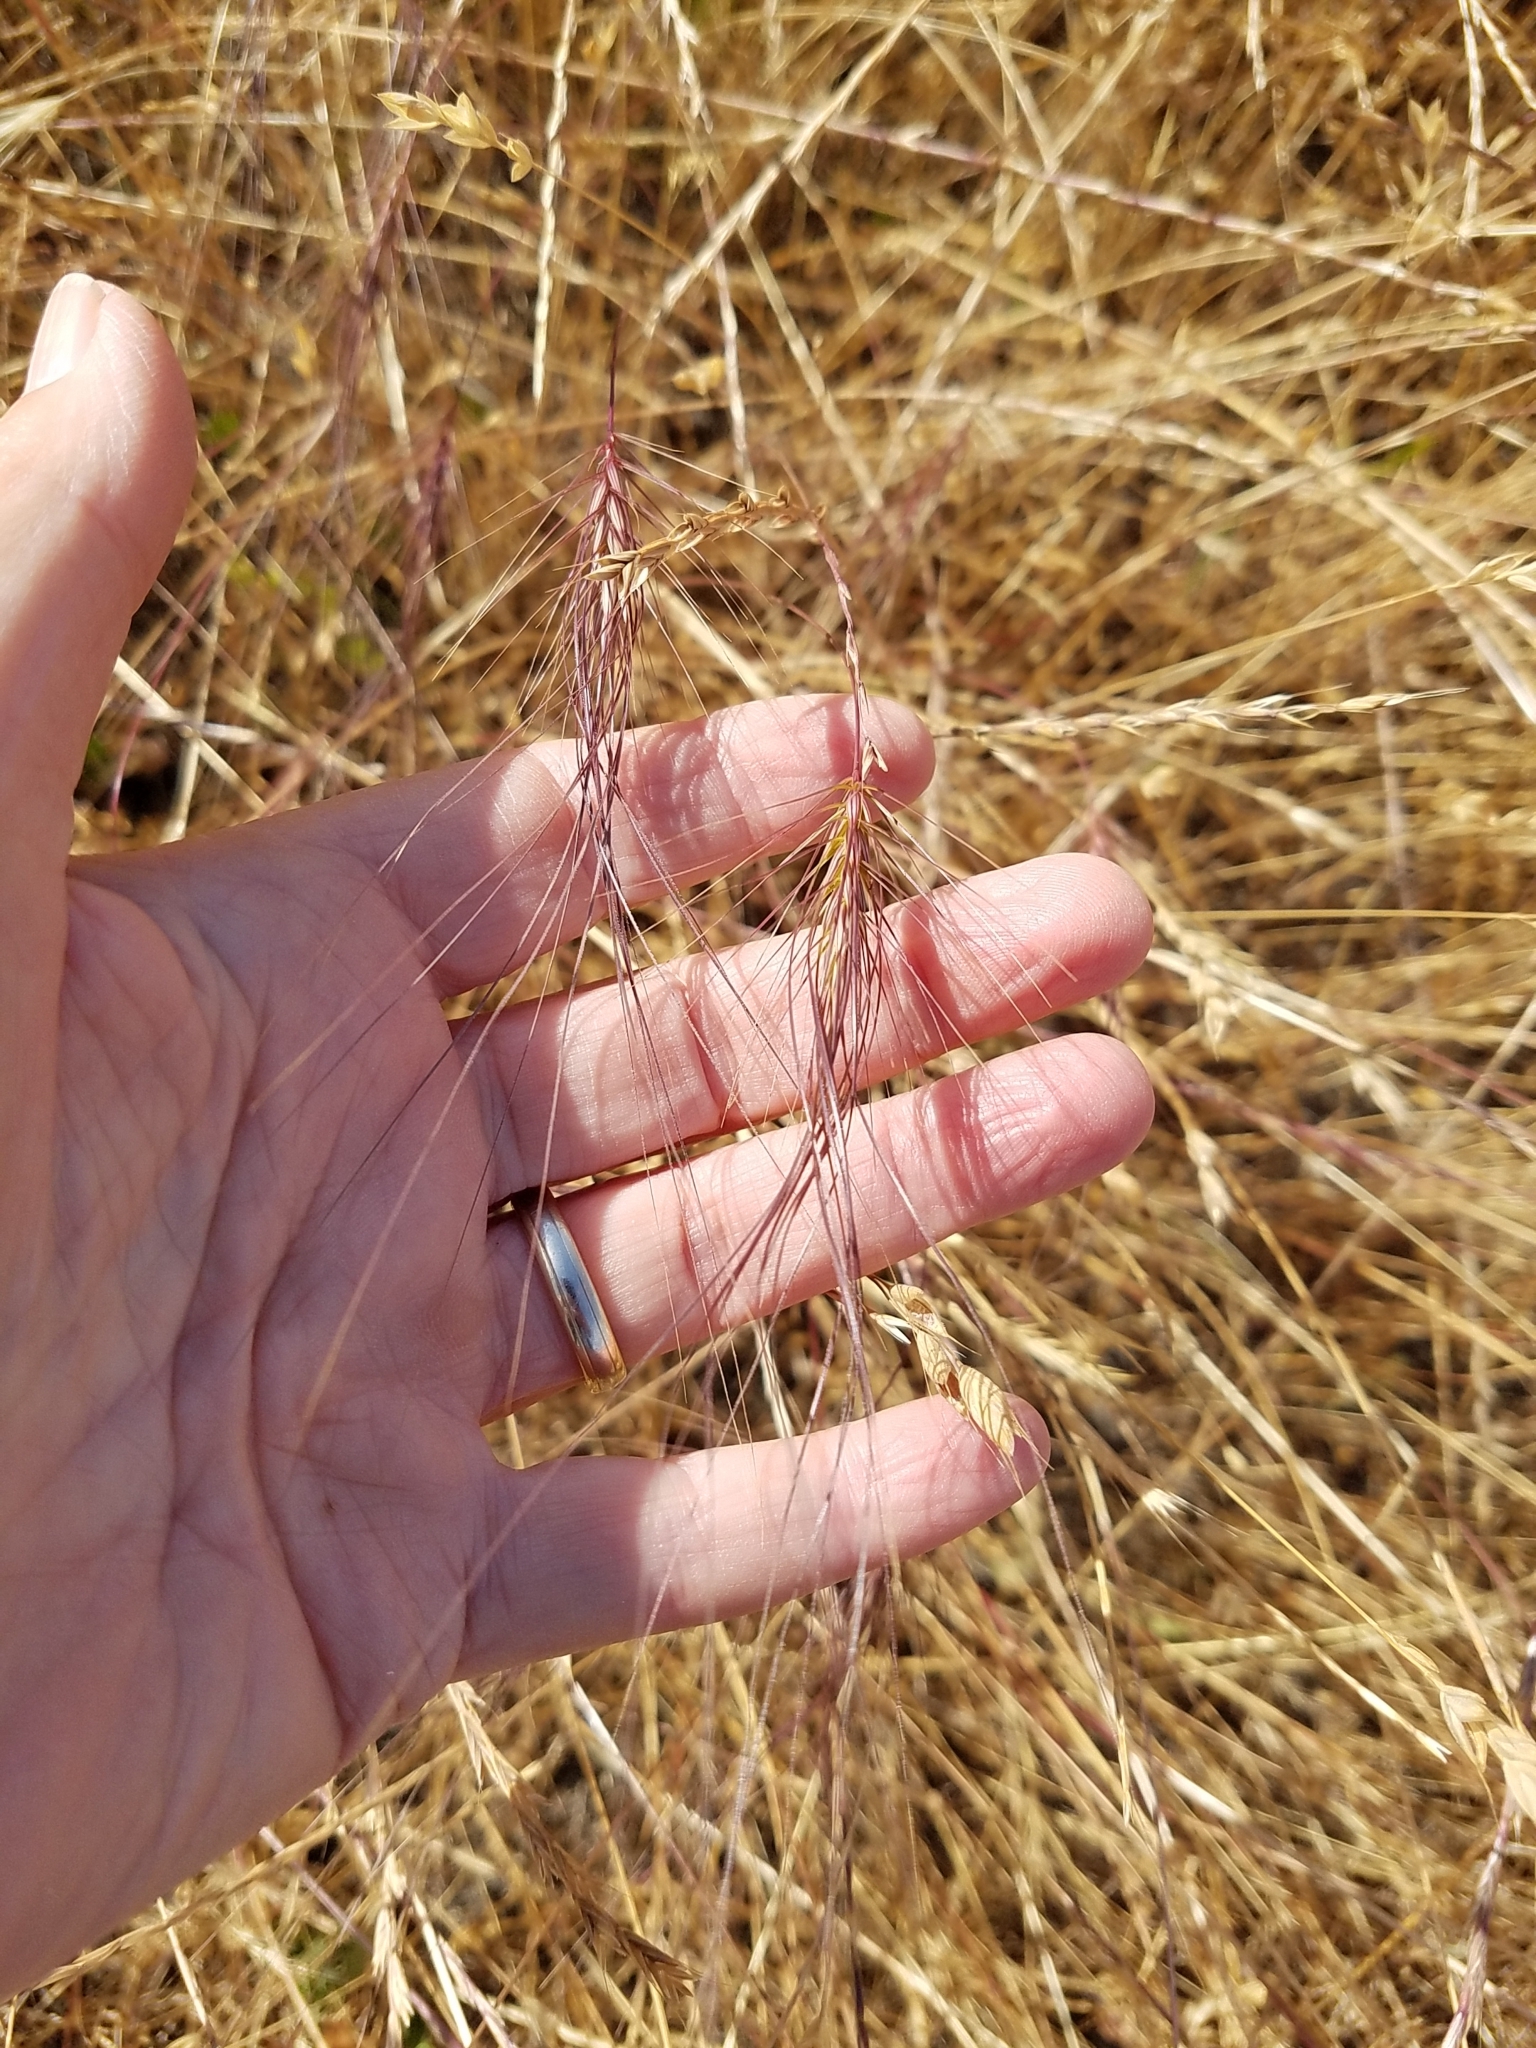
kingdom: Plantae
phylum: Tracheophyta
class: Liliopsida
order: Poales
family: Poaceae
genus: Taeniatherum
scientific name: Taeniatherum caput-medusae
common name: Medusahead
